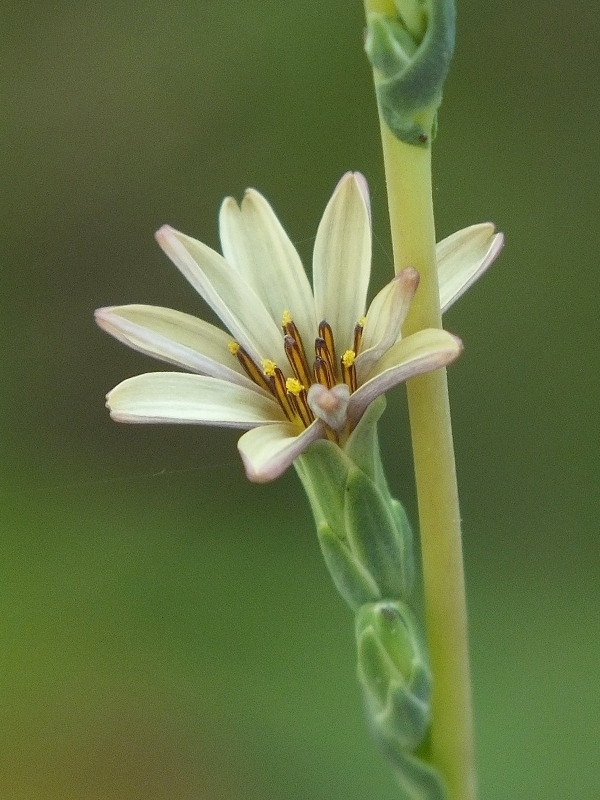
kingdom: Plantae
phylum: Tracheophyta
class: Magnoliopsida
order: Asterales
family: Asteraceae
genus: Lactuca
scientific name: Lactuca saligna
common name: Wild lettuce
